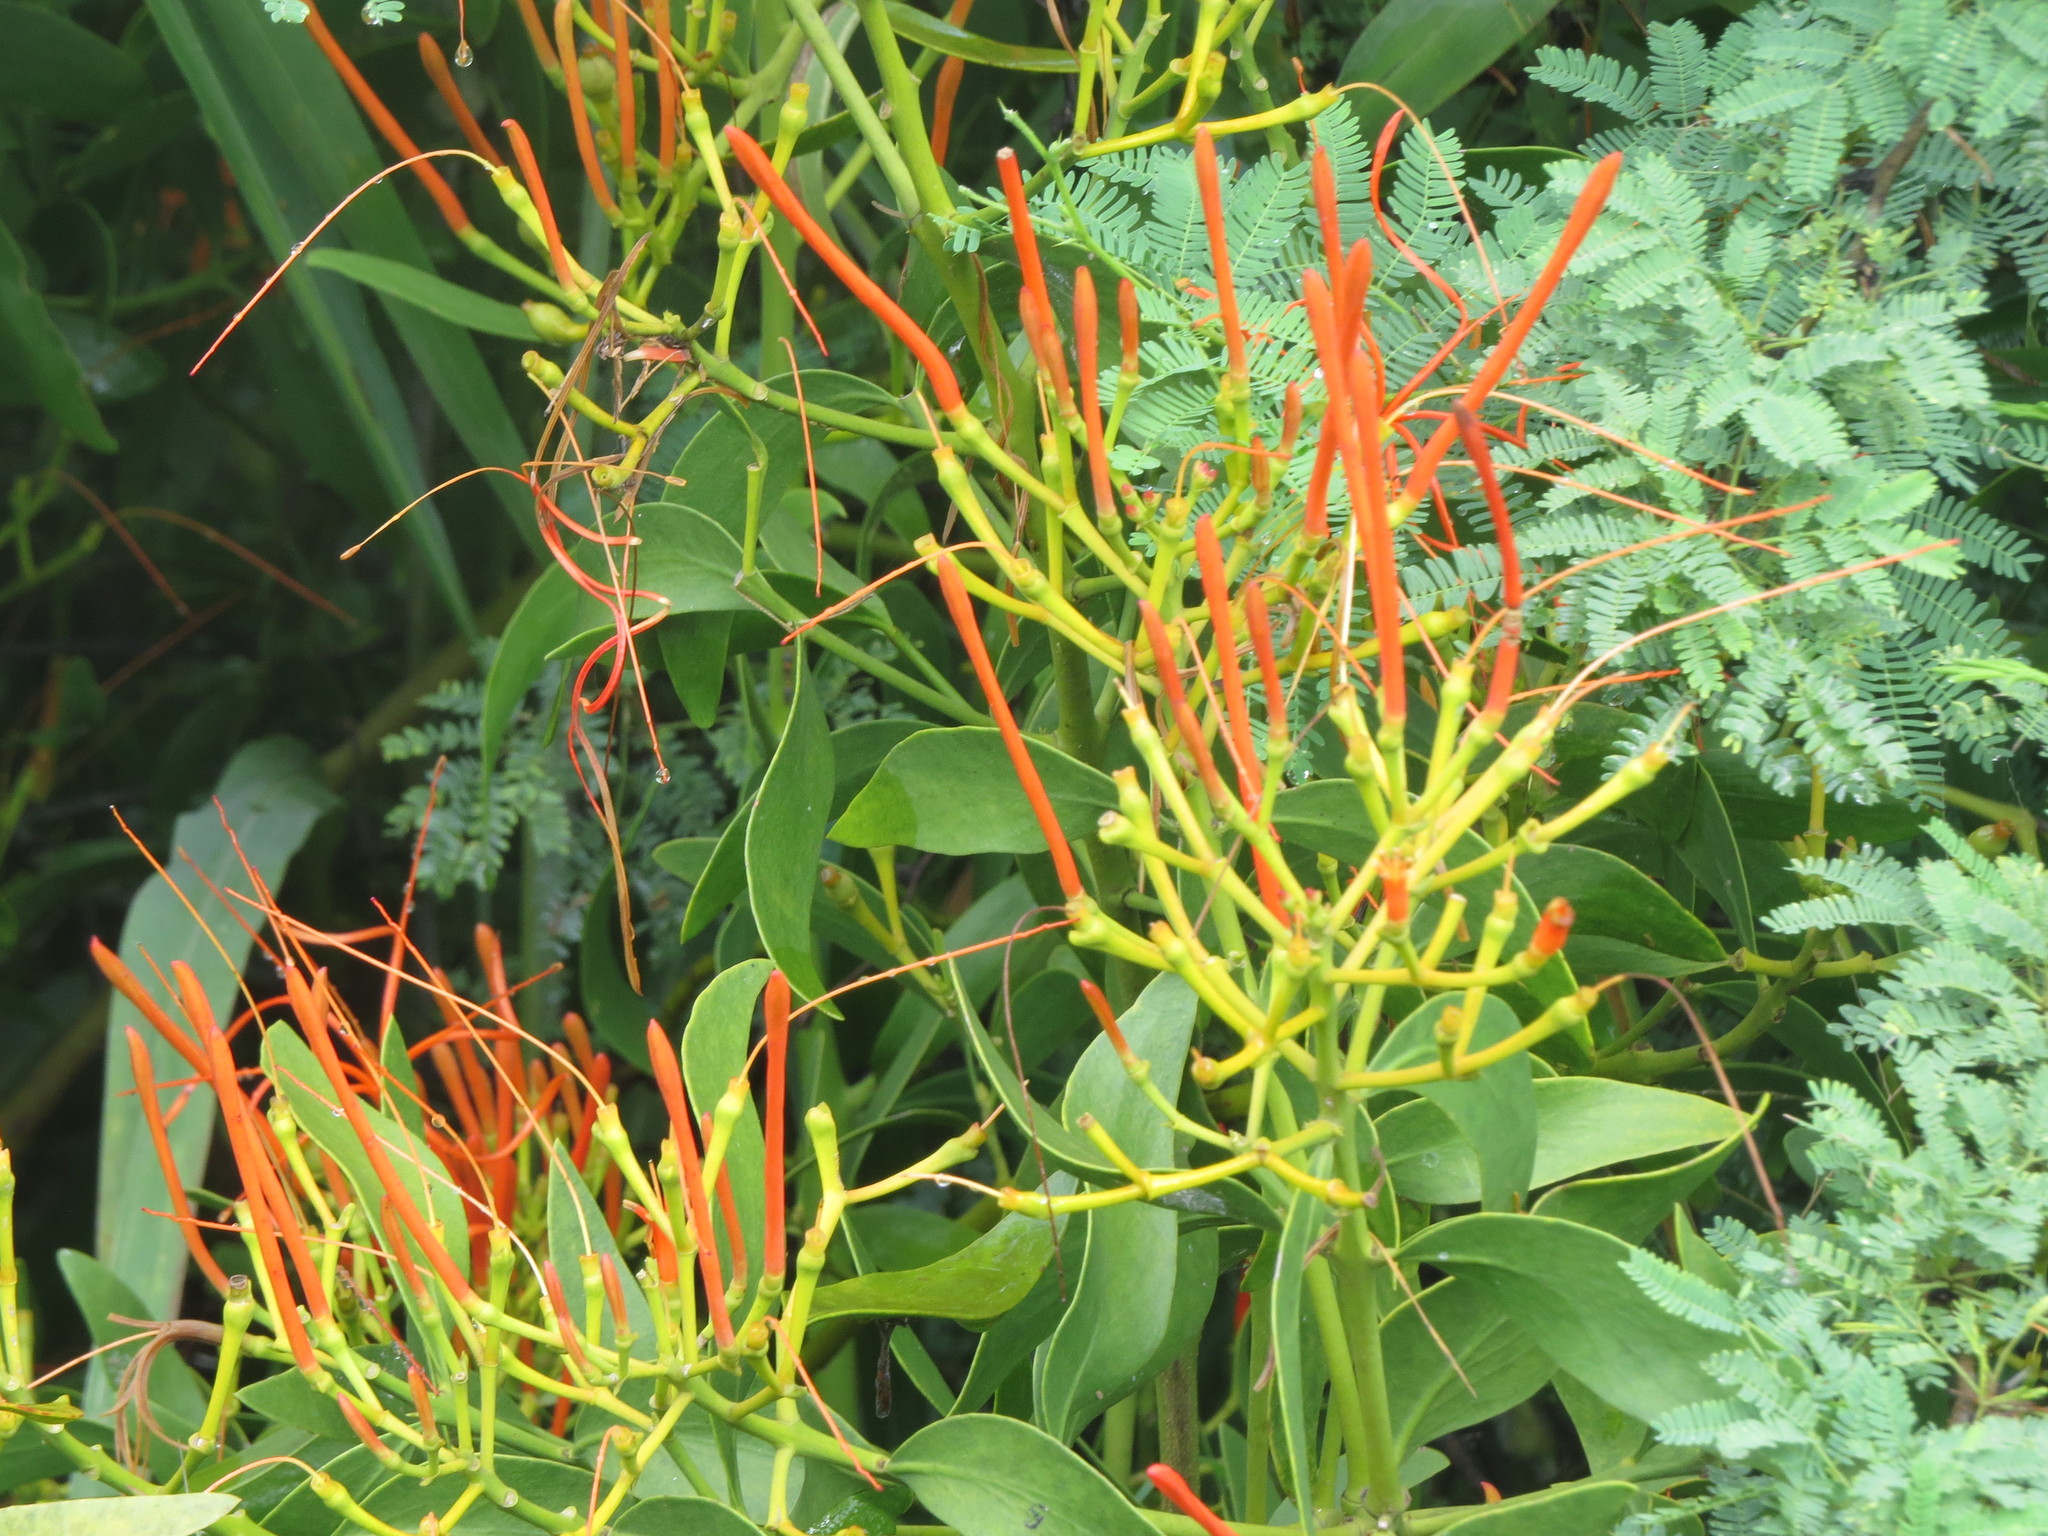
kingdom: Plantae
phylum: Tracheophyta
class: Magnoliopsida
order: Santalales
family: Loranthaceae
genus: Psittacanthus
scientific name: Psittacanthus calyculatus
